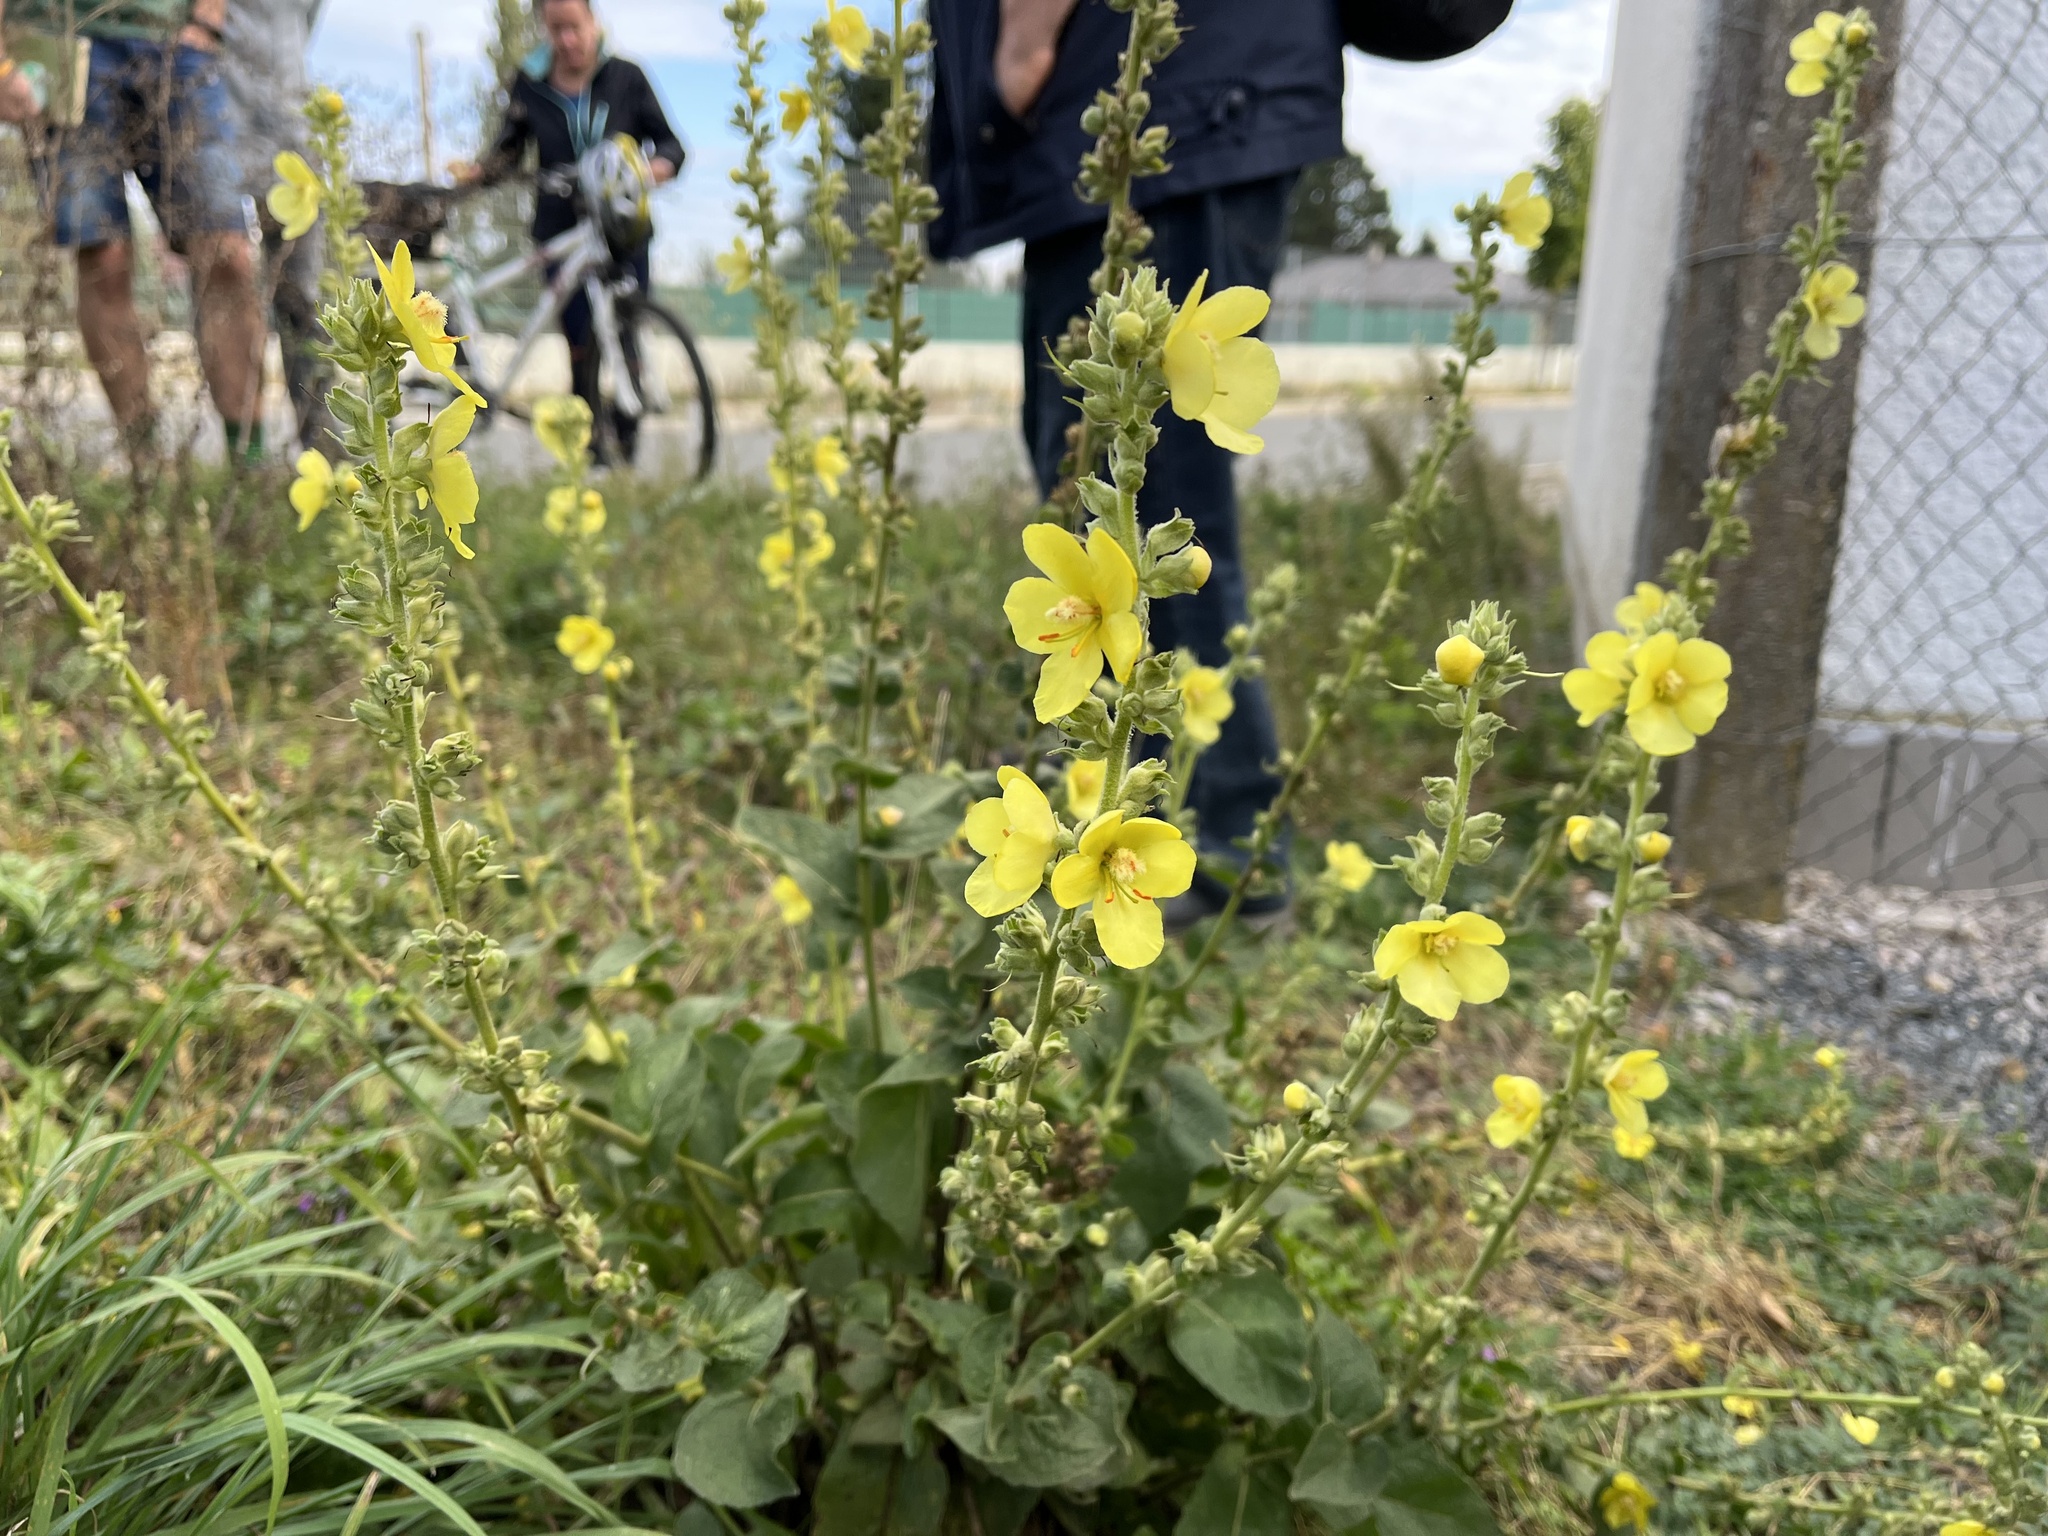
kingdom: Plantae
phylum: Tracheophyta
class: Magnoliopsida
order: Lamiales
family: Scrophulariaceae
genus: Verbascum
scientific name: Verbascum phlomoides
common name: Orange mullein
